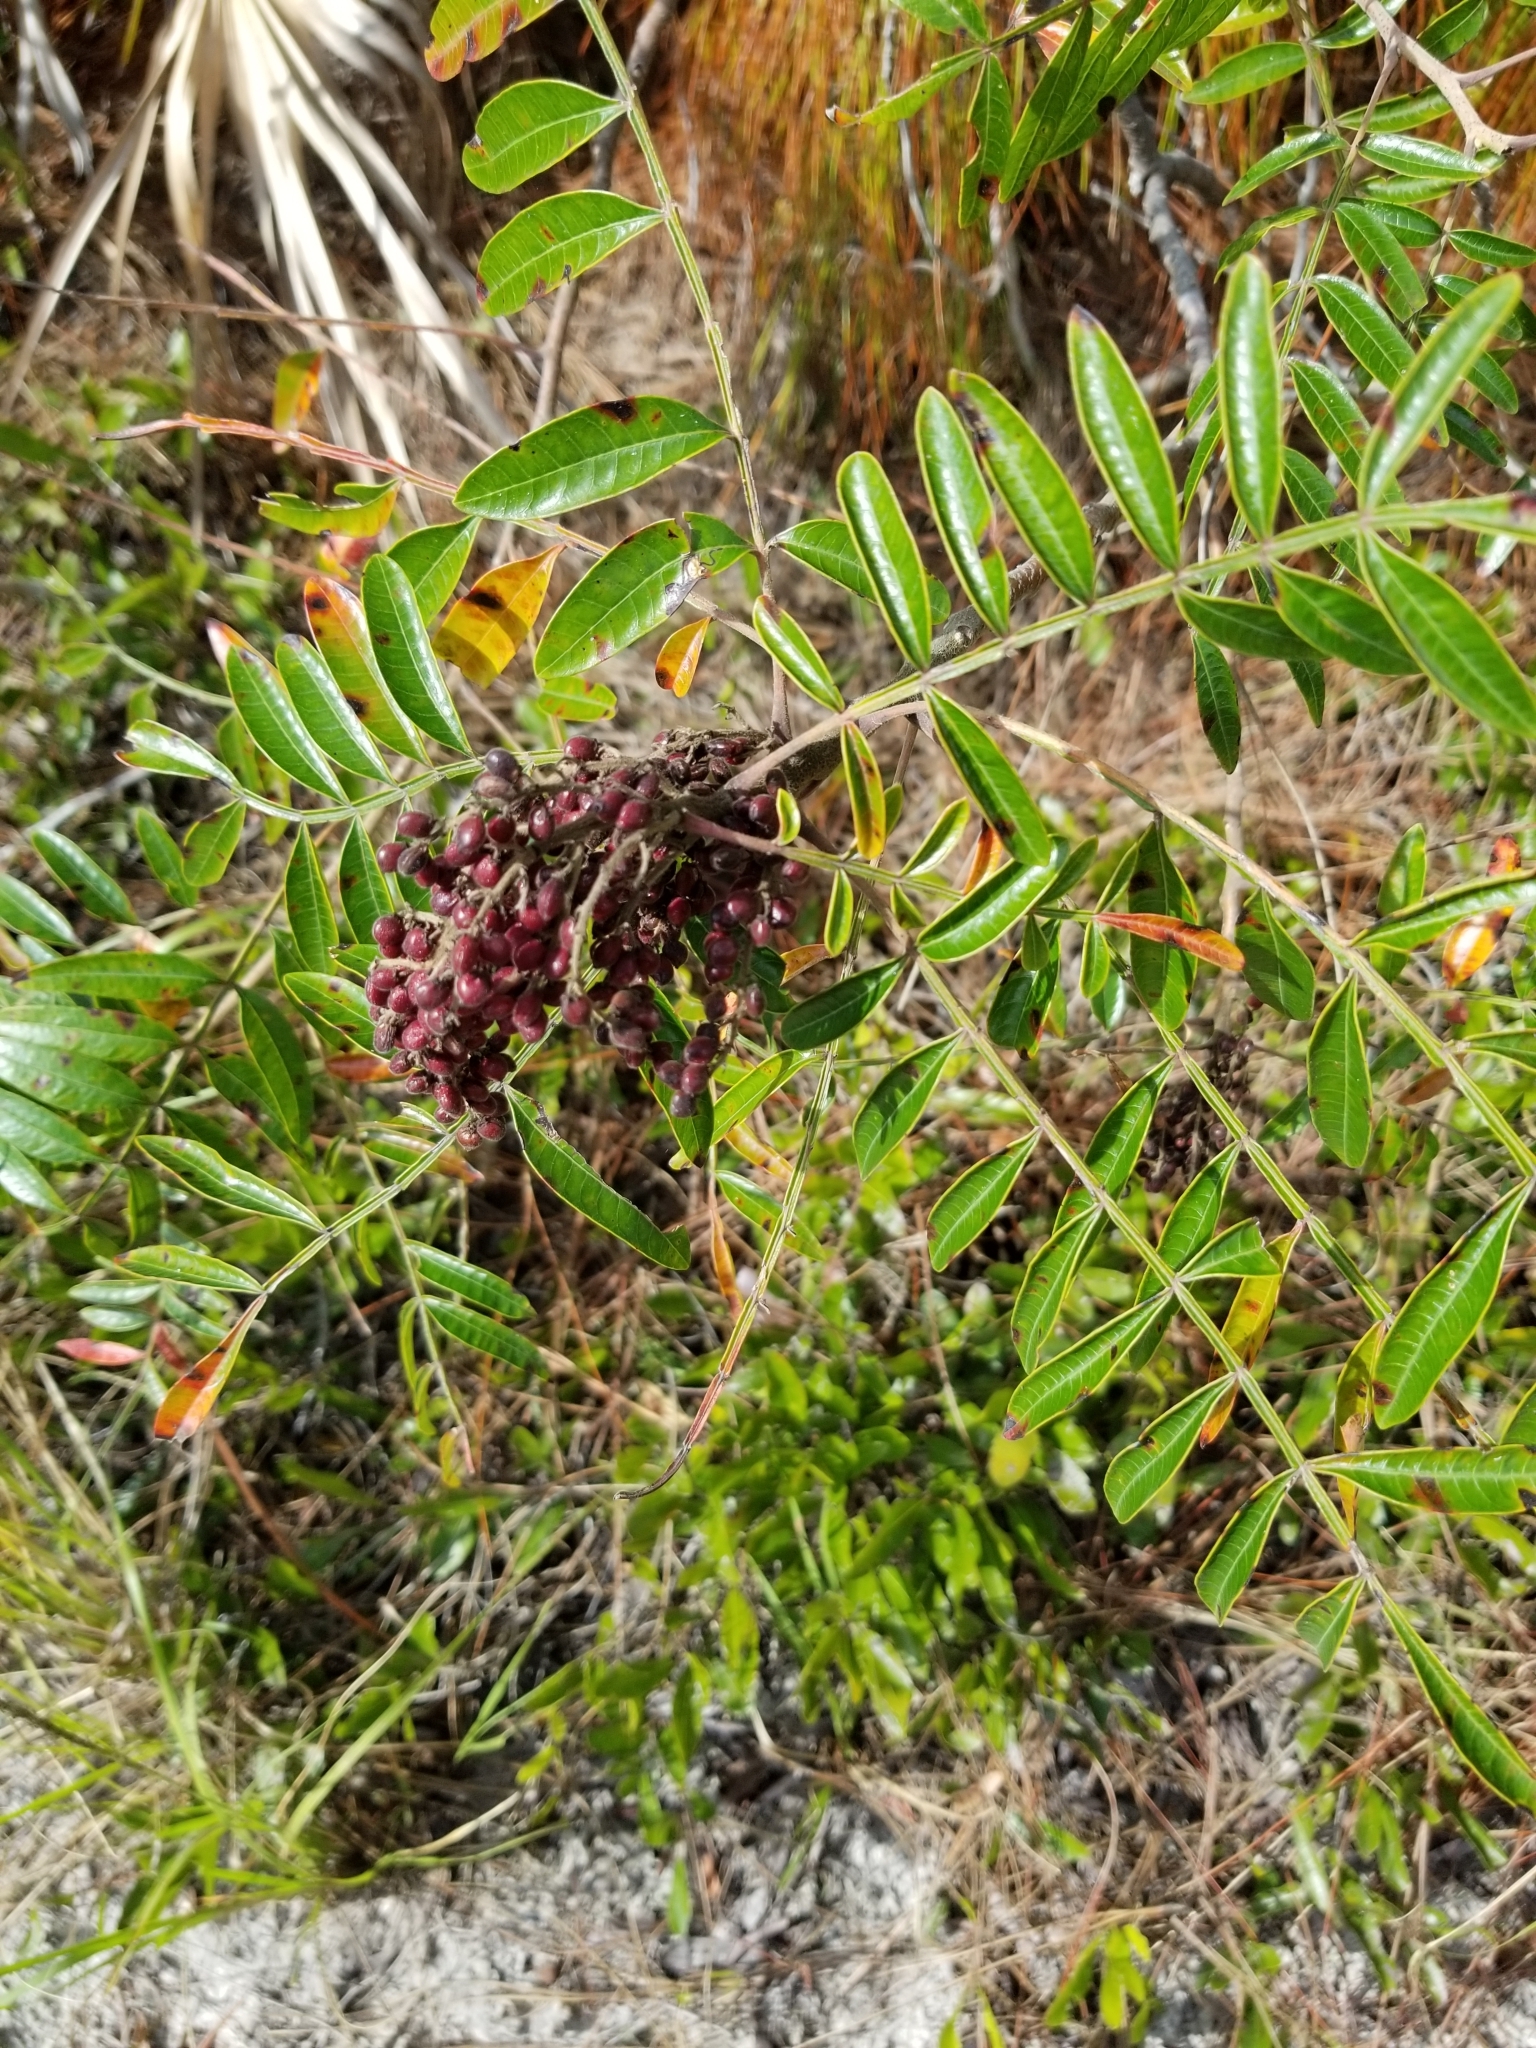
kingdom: Plantae
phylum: Tracheophyta
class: Magnoliopsida
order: Sapindales
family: Anacardiaceae
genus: Rhus
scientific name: Rhus copallina
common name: Shining sumac
